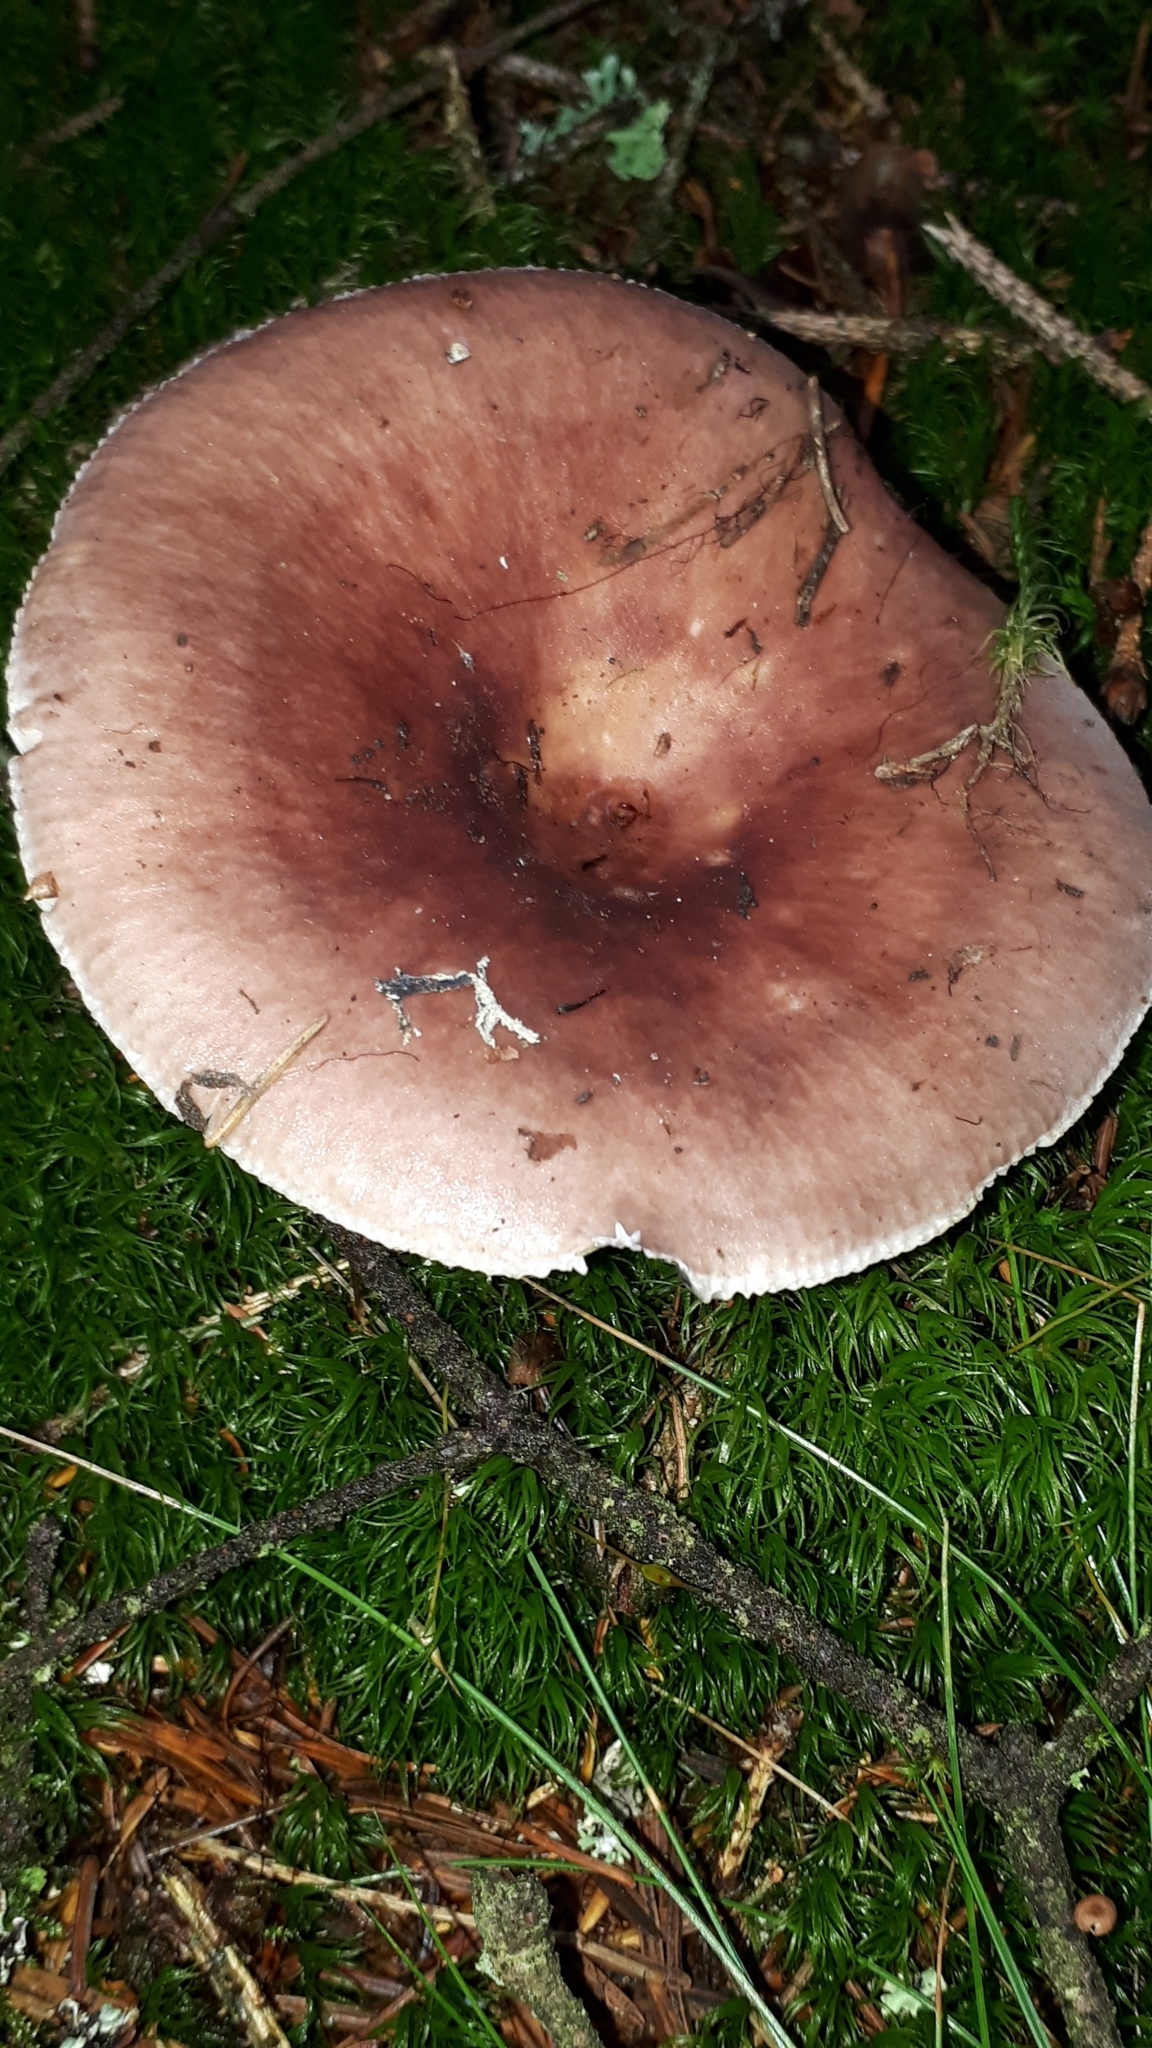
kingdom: Fungi
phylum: Basidiomycota
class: Agaricomycetes
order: Russulales
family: Russulaceae
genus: Russula
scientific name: Russula vesca
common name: Bare-toothed russula
